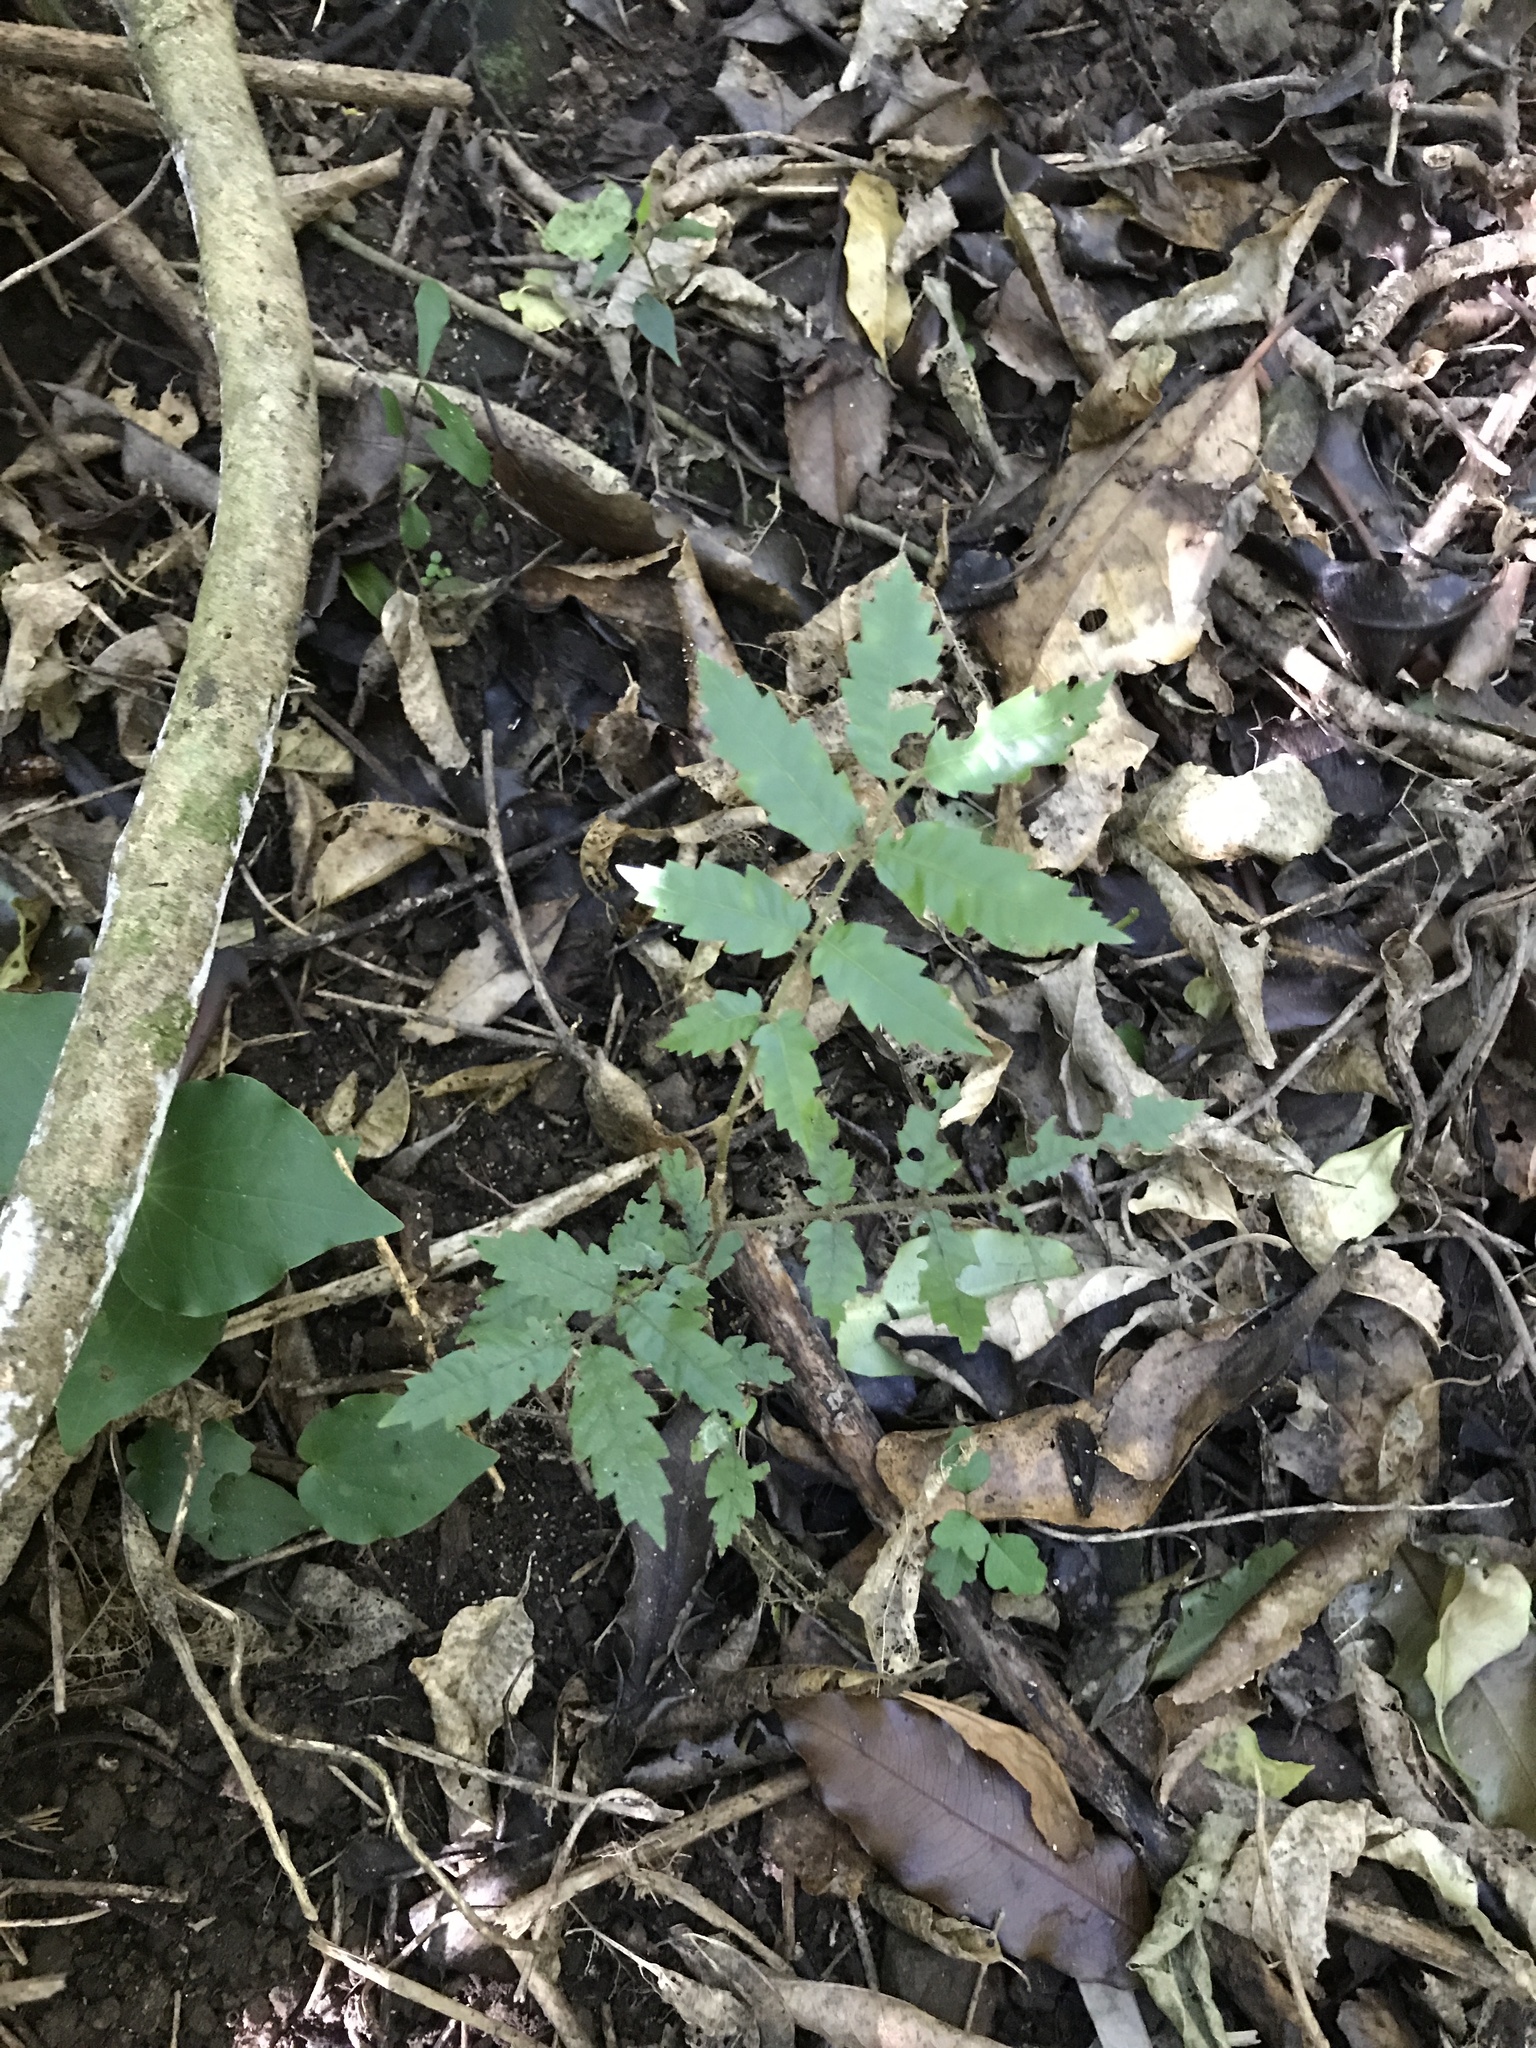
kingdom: Plantae
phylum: Tracheophyta
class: Magnoliopsida
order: Sapindales
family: Sapindaceae
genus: Alectryon
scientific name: Alectryon excelsus
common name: Three kings titoki
